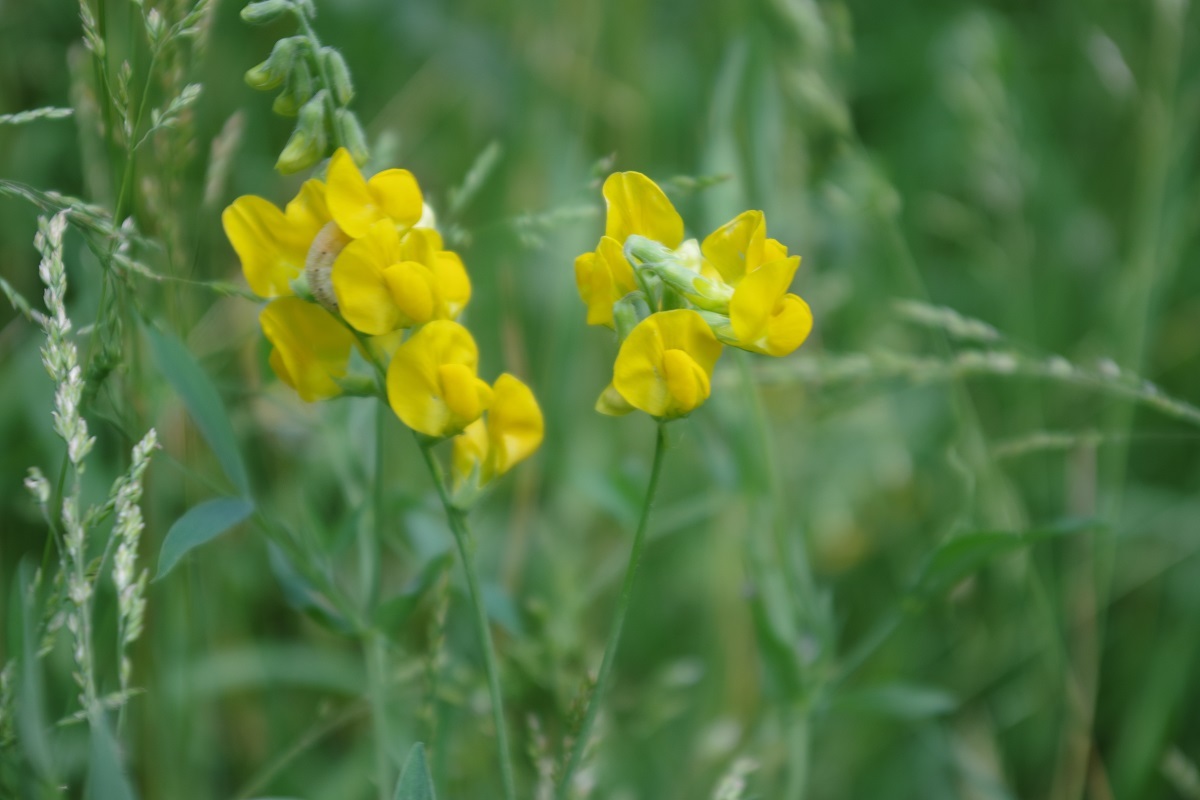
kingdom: Plantae
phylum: Tracheophyta
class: Magnoliopsida
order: Fabales
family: Fabaceae
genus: Lathyrus
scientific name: Lathyrus pratensis
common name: Meadow vetchling
